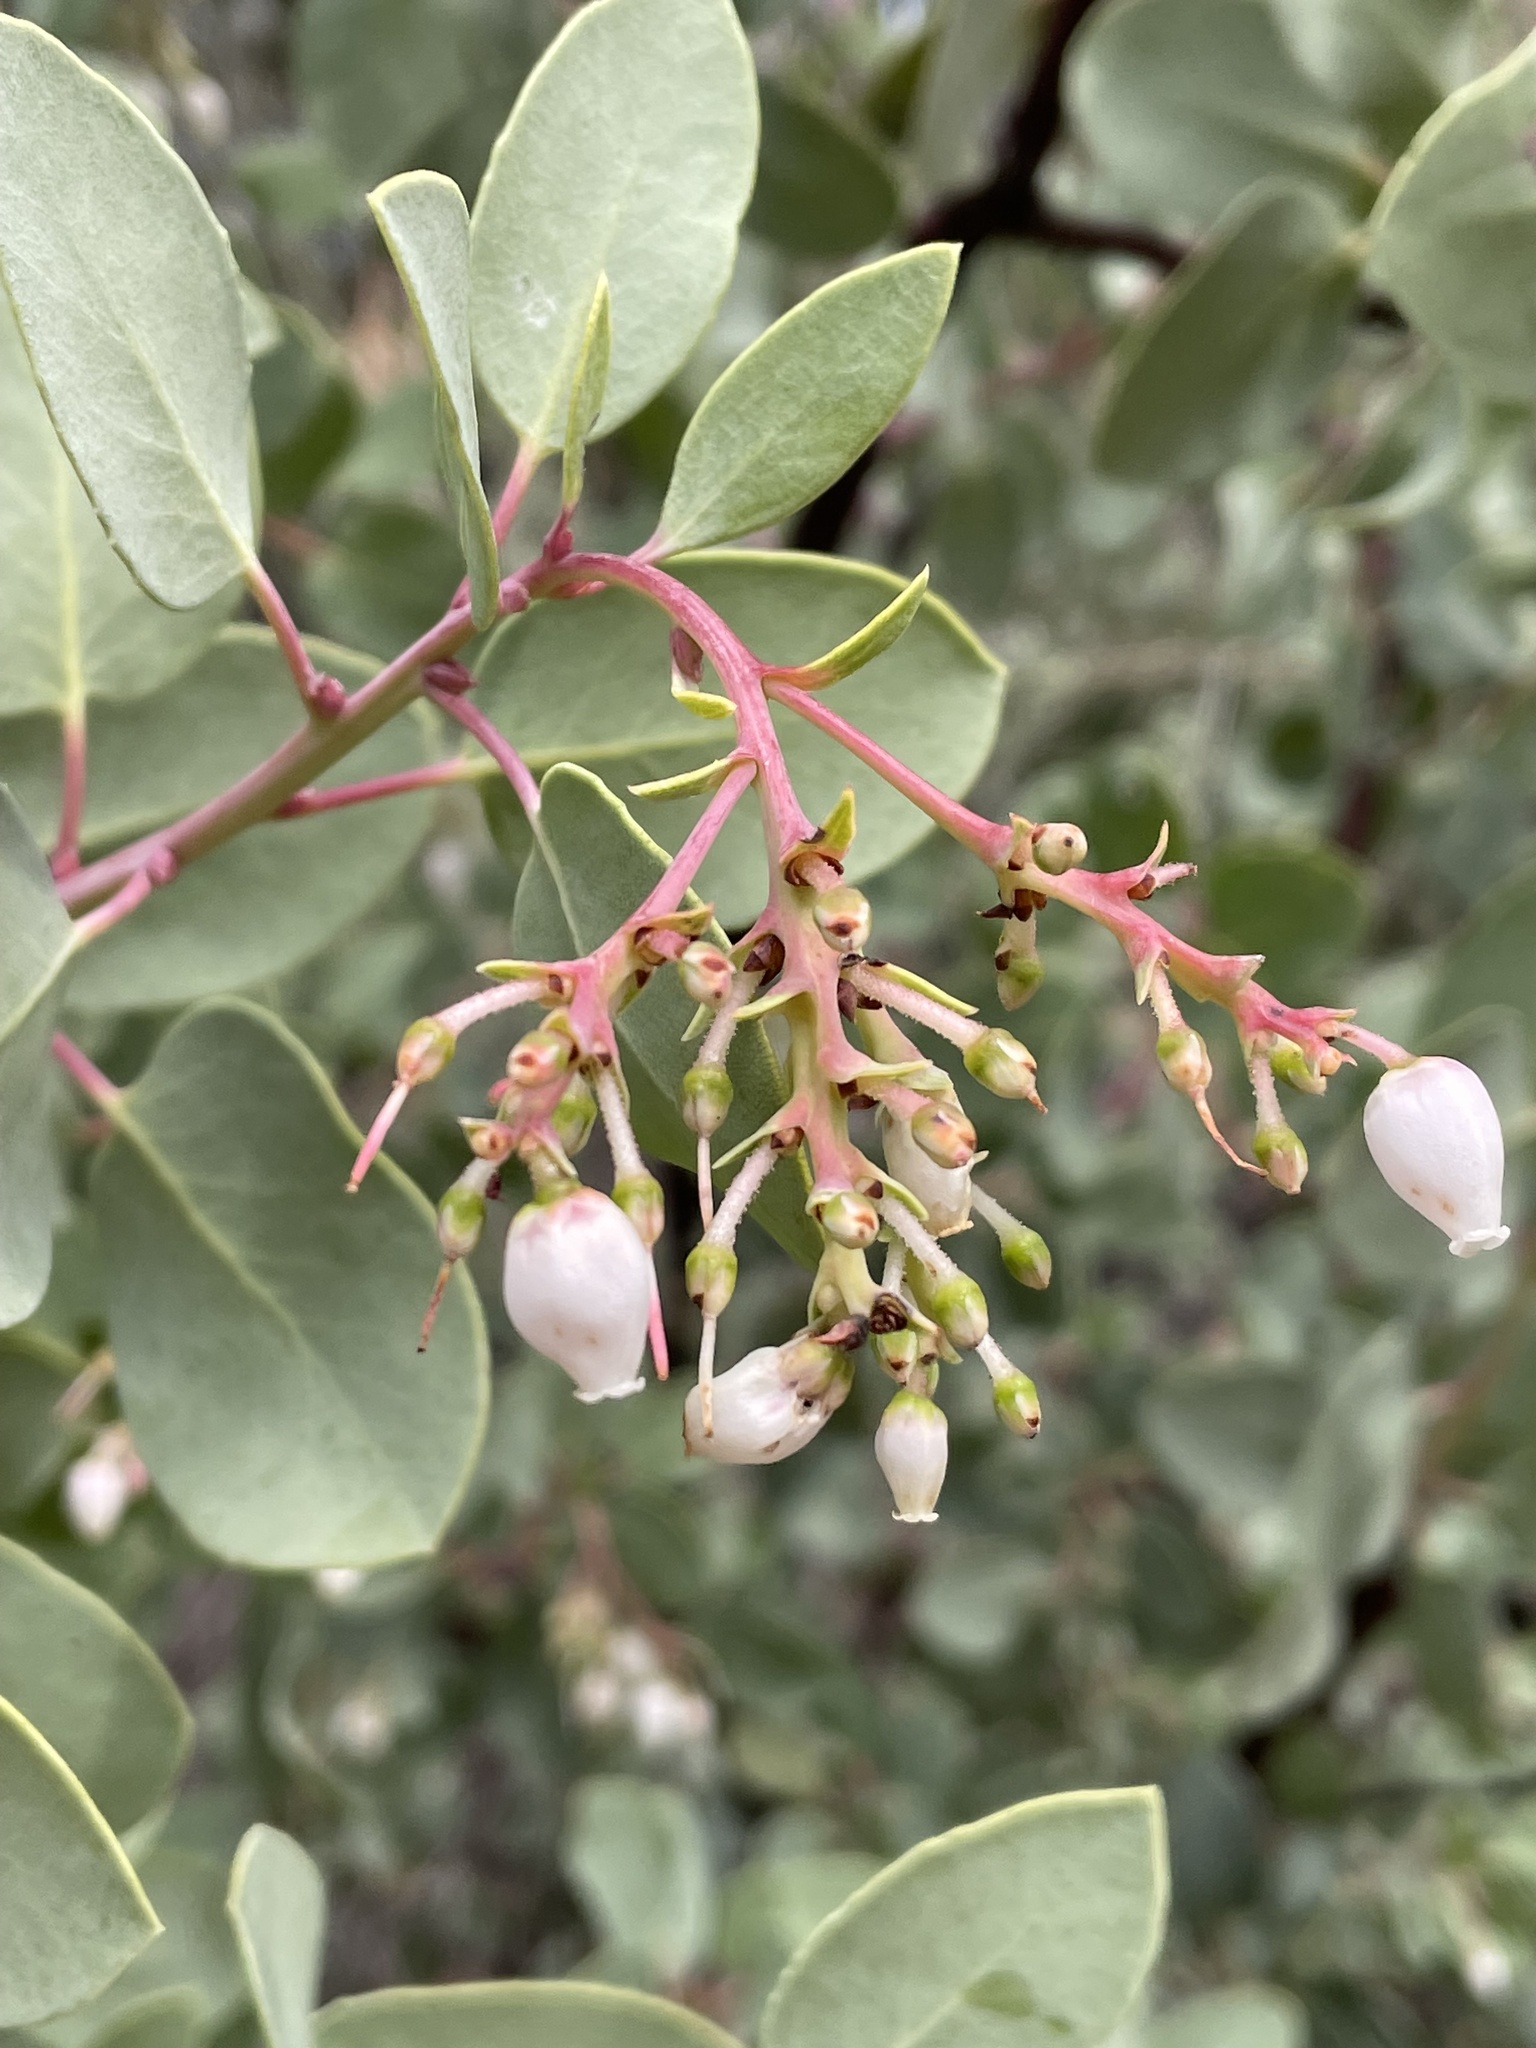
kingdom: Plantae
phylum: Tracheophyta
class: Magnoliopsida
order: Ericales
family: Ericaceae
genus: Arctostaphylos
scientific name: Arctostaphylos glauca
